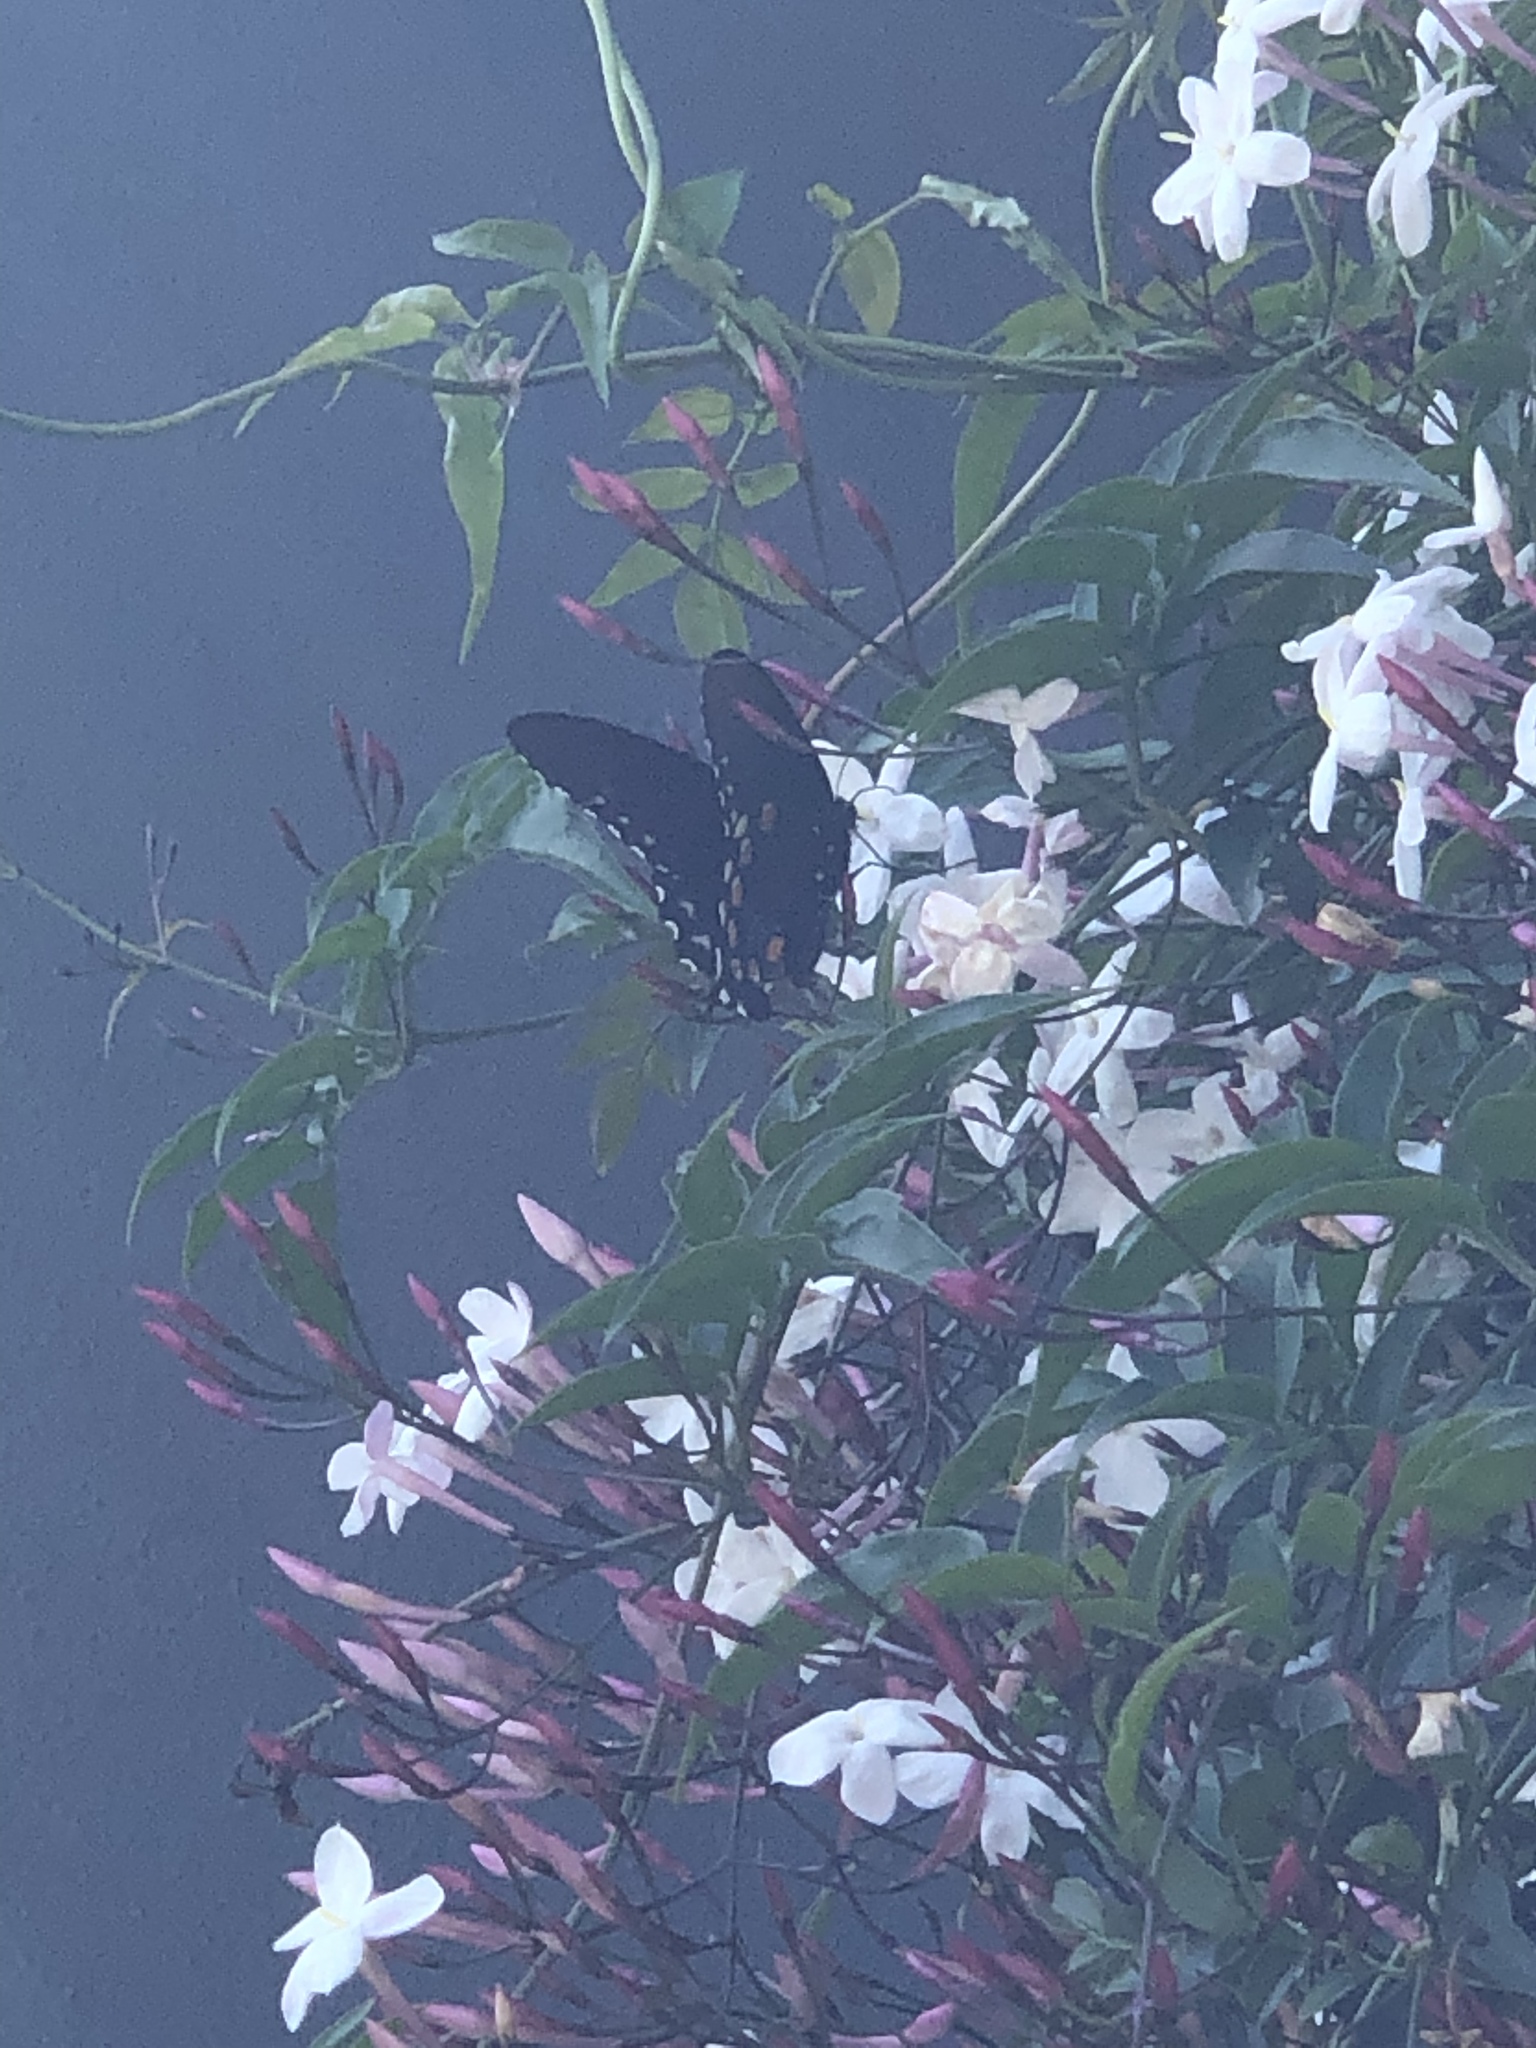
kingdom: Animalia
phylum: Arthropoda
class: Insecta
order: Lepidoptera
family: Papilionidae
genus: Battus
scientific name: Battus philenor
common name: Pipevine swallowtail
